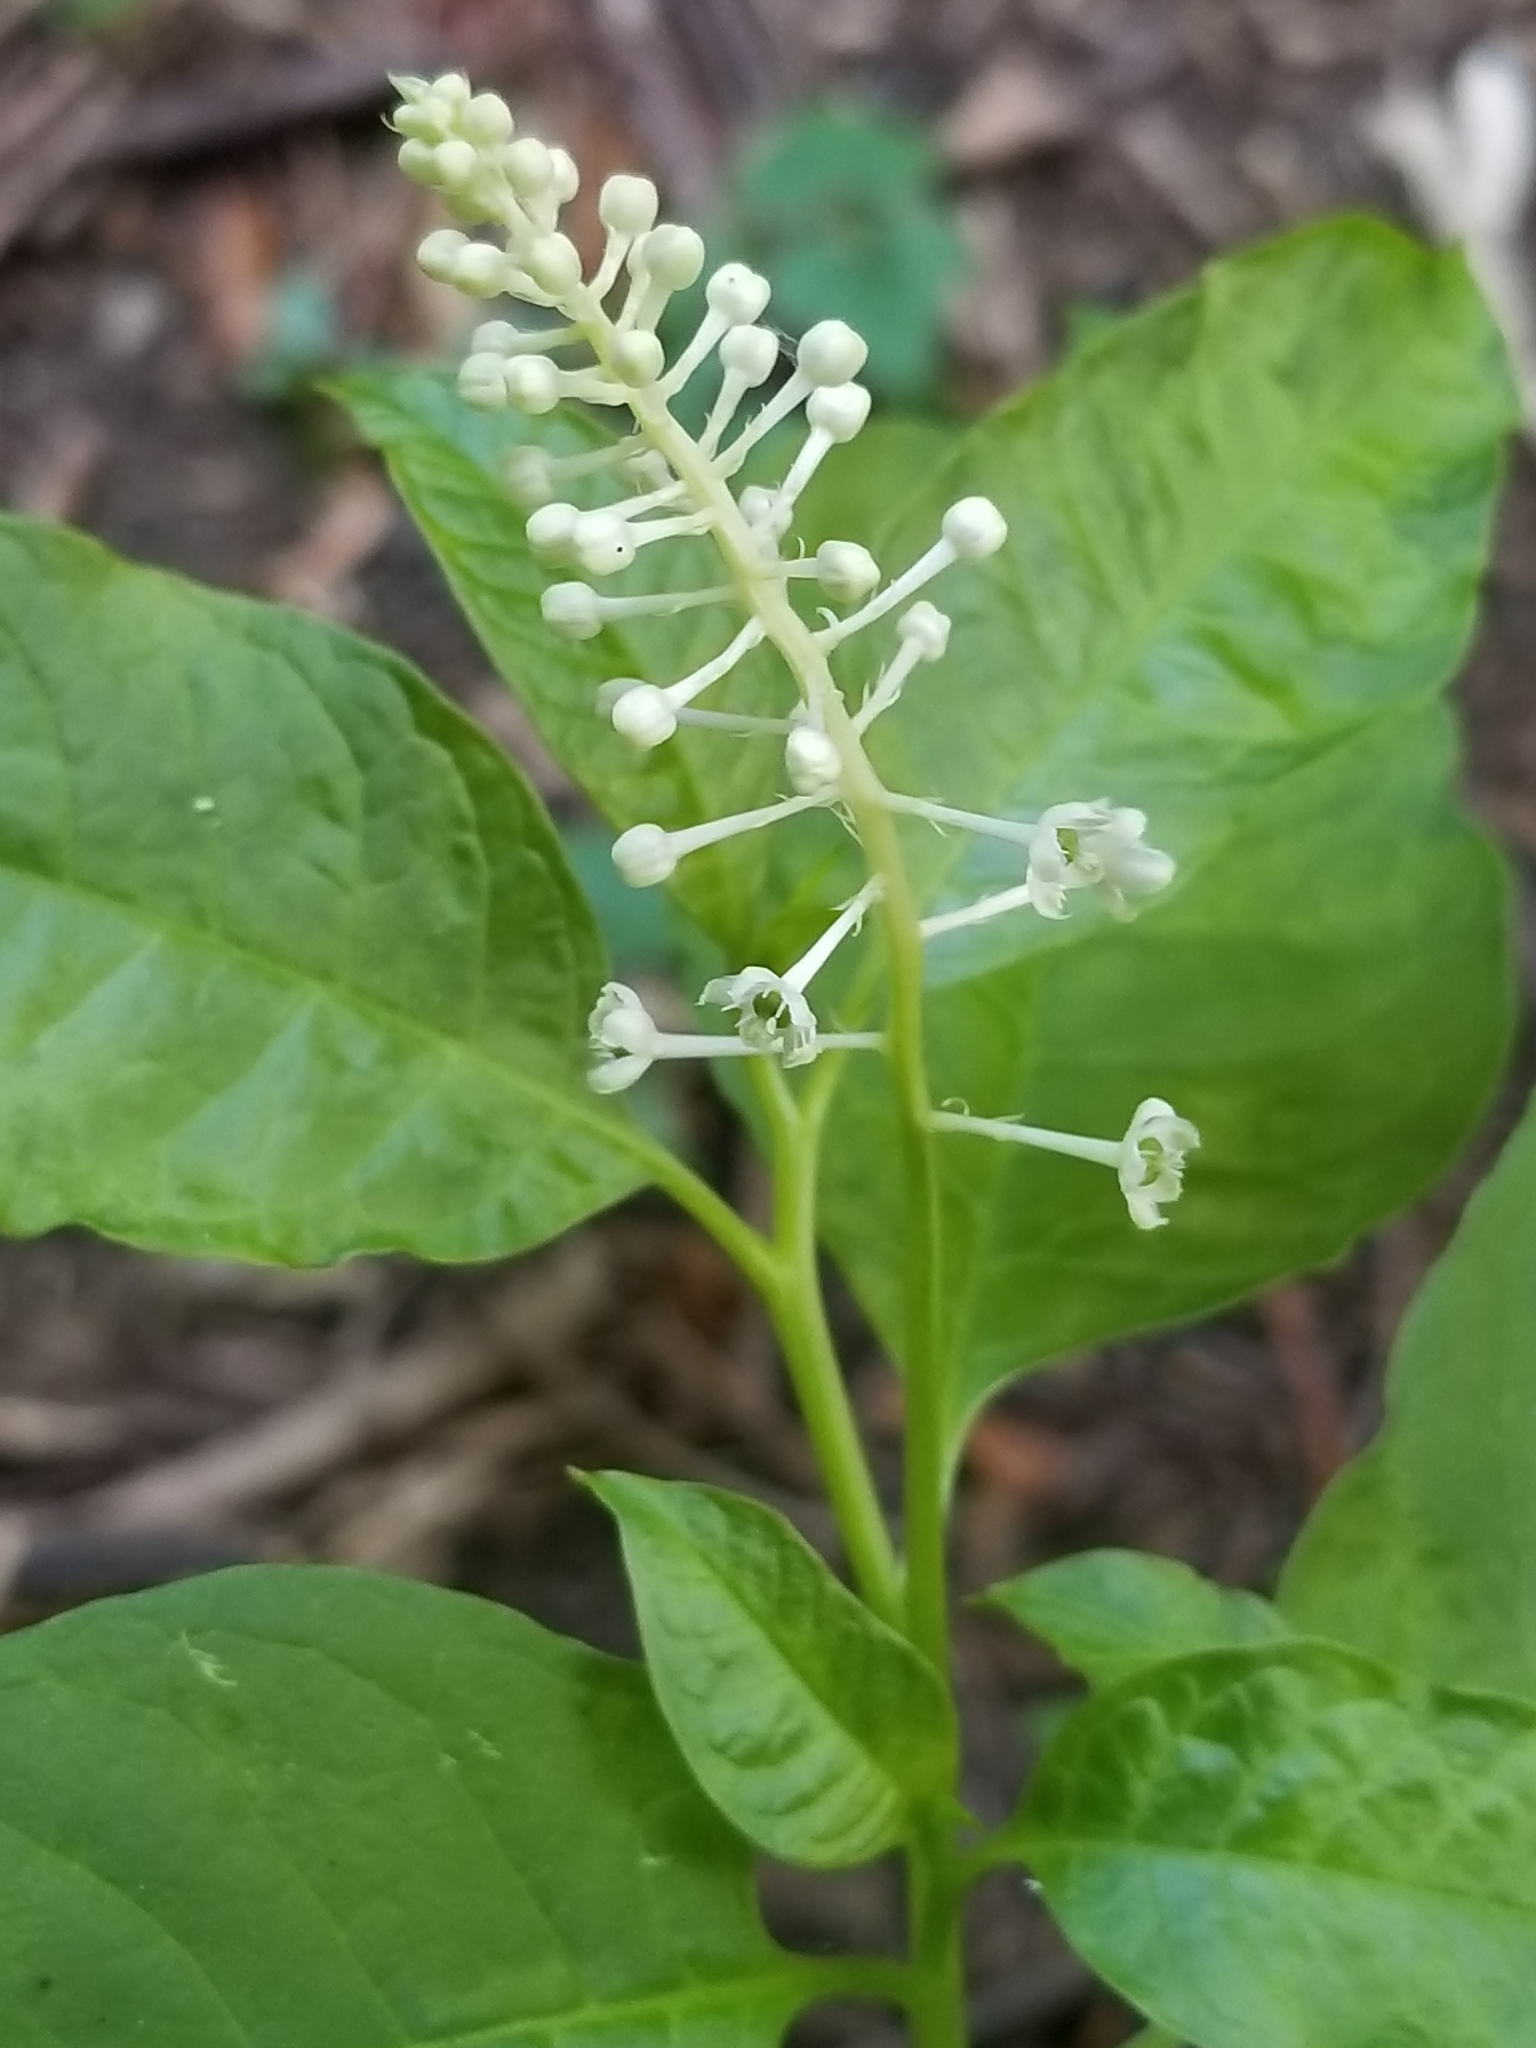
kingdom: Plantae
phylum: Tracheophyta
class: Magnoliopsida
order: Caryophyllales
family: Phytolaccaceae
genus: Phytolacca
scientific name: Phytolacca americana
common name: American pokeweed
